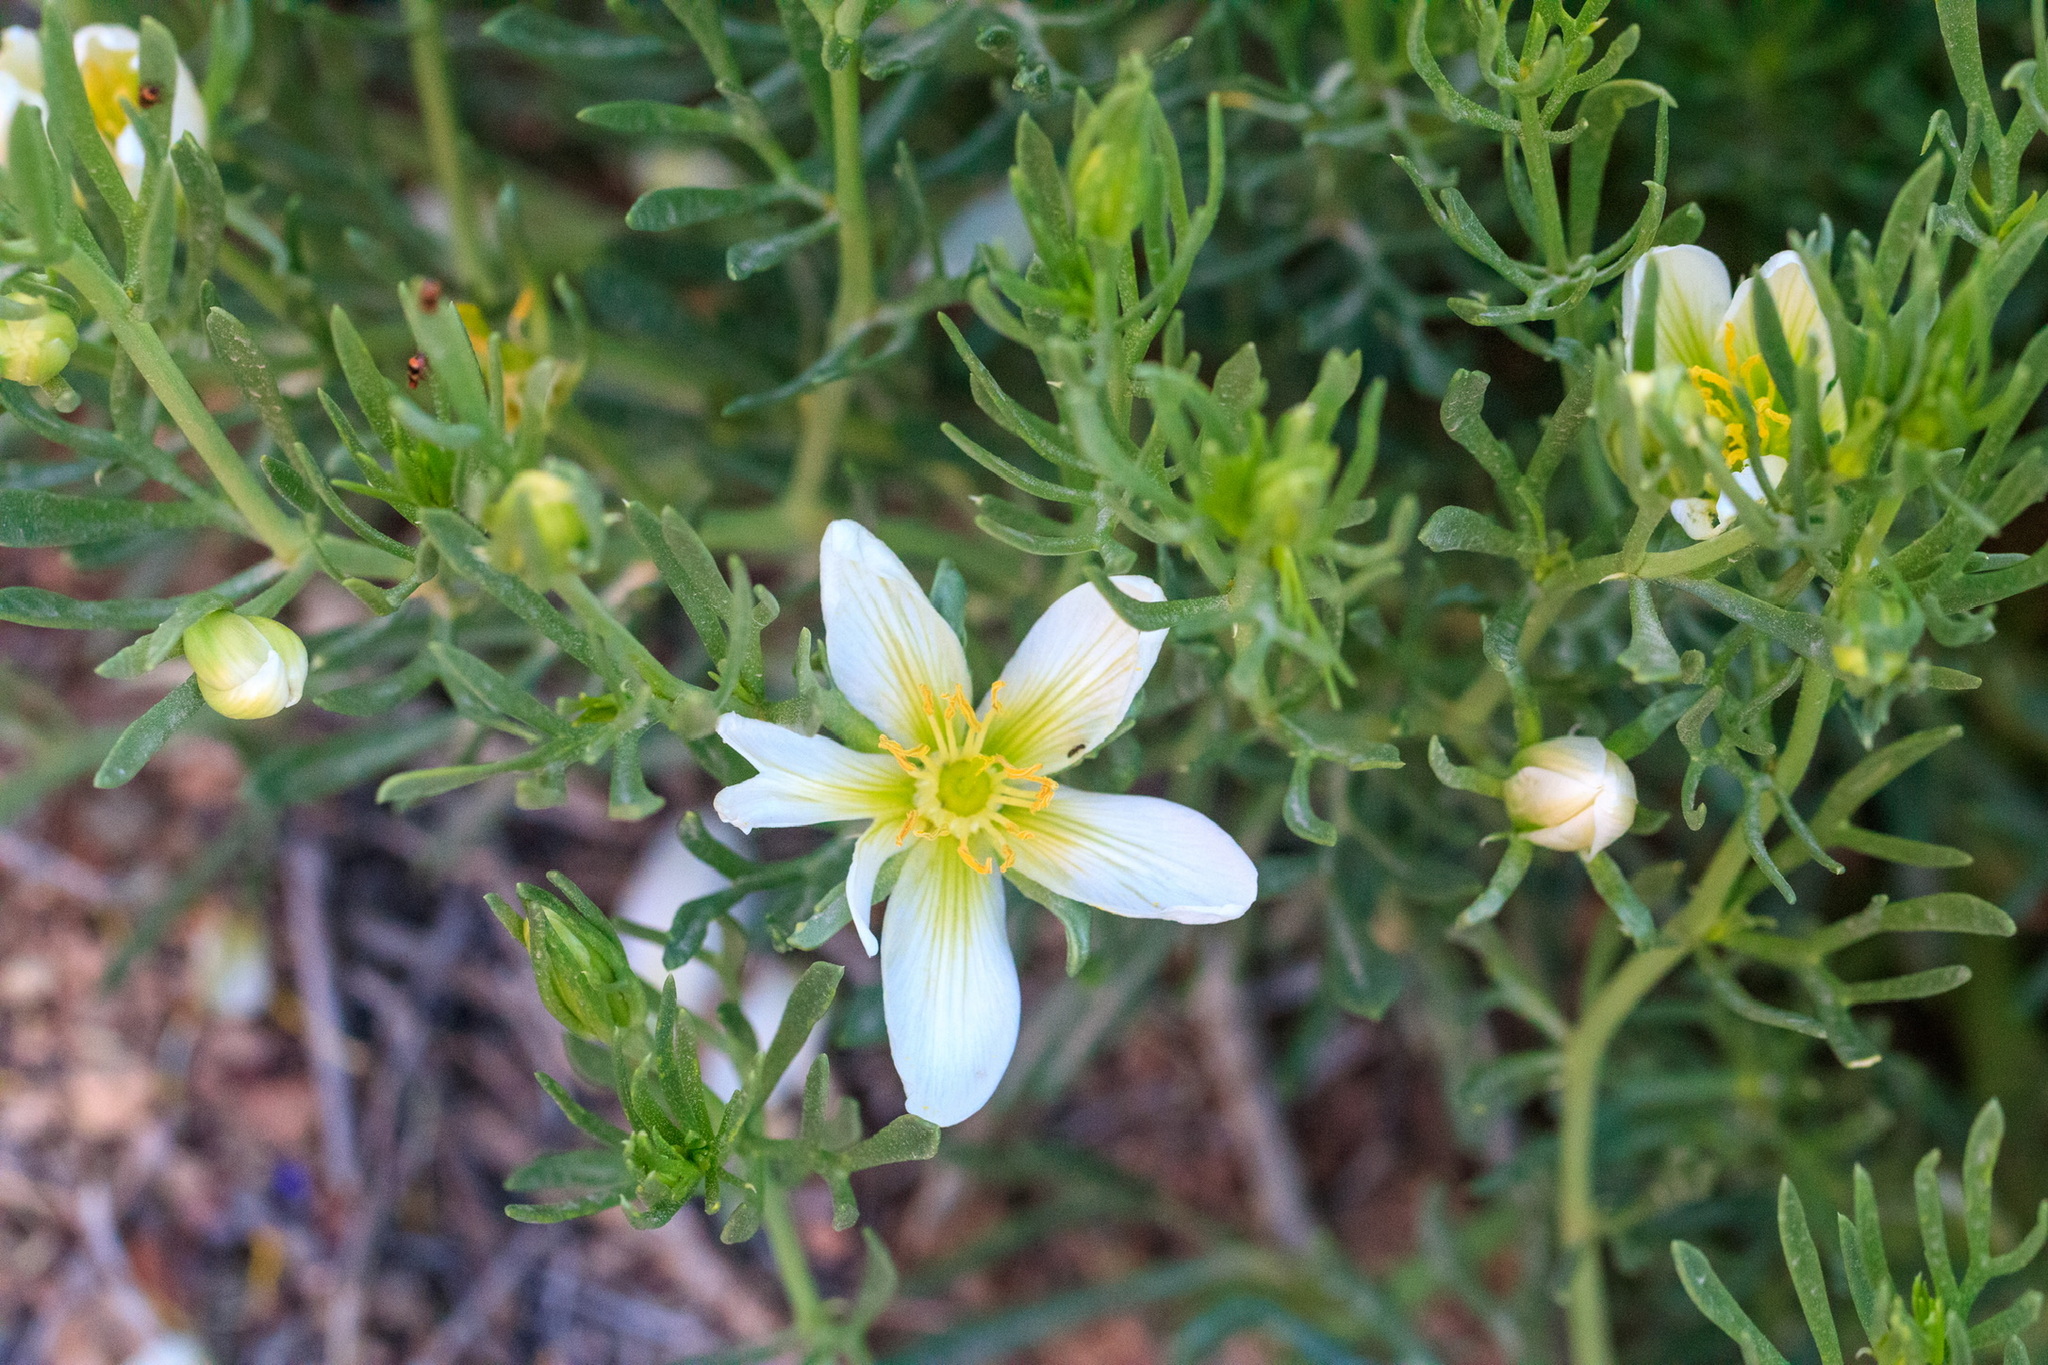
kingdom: Plantae
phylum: Tracheophyta
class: Magnoliopsida
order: Sapindales
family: Tetradiclidaceae
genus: Peganum
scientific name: Peganum harmala
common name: Harmal peganum
